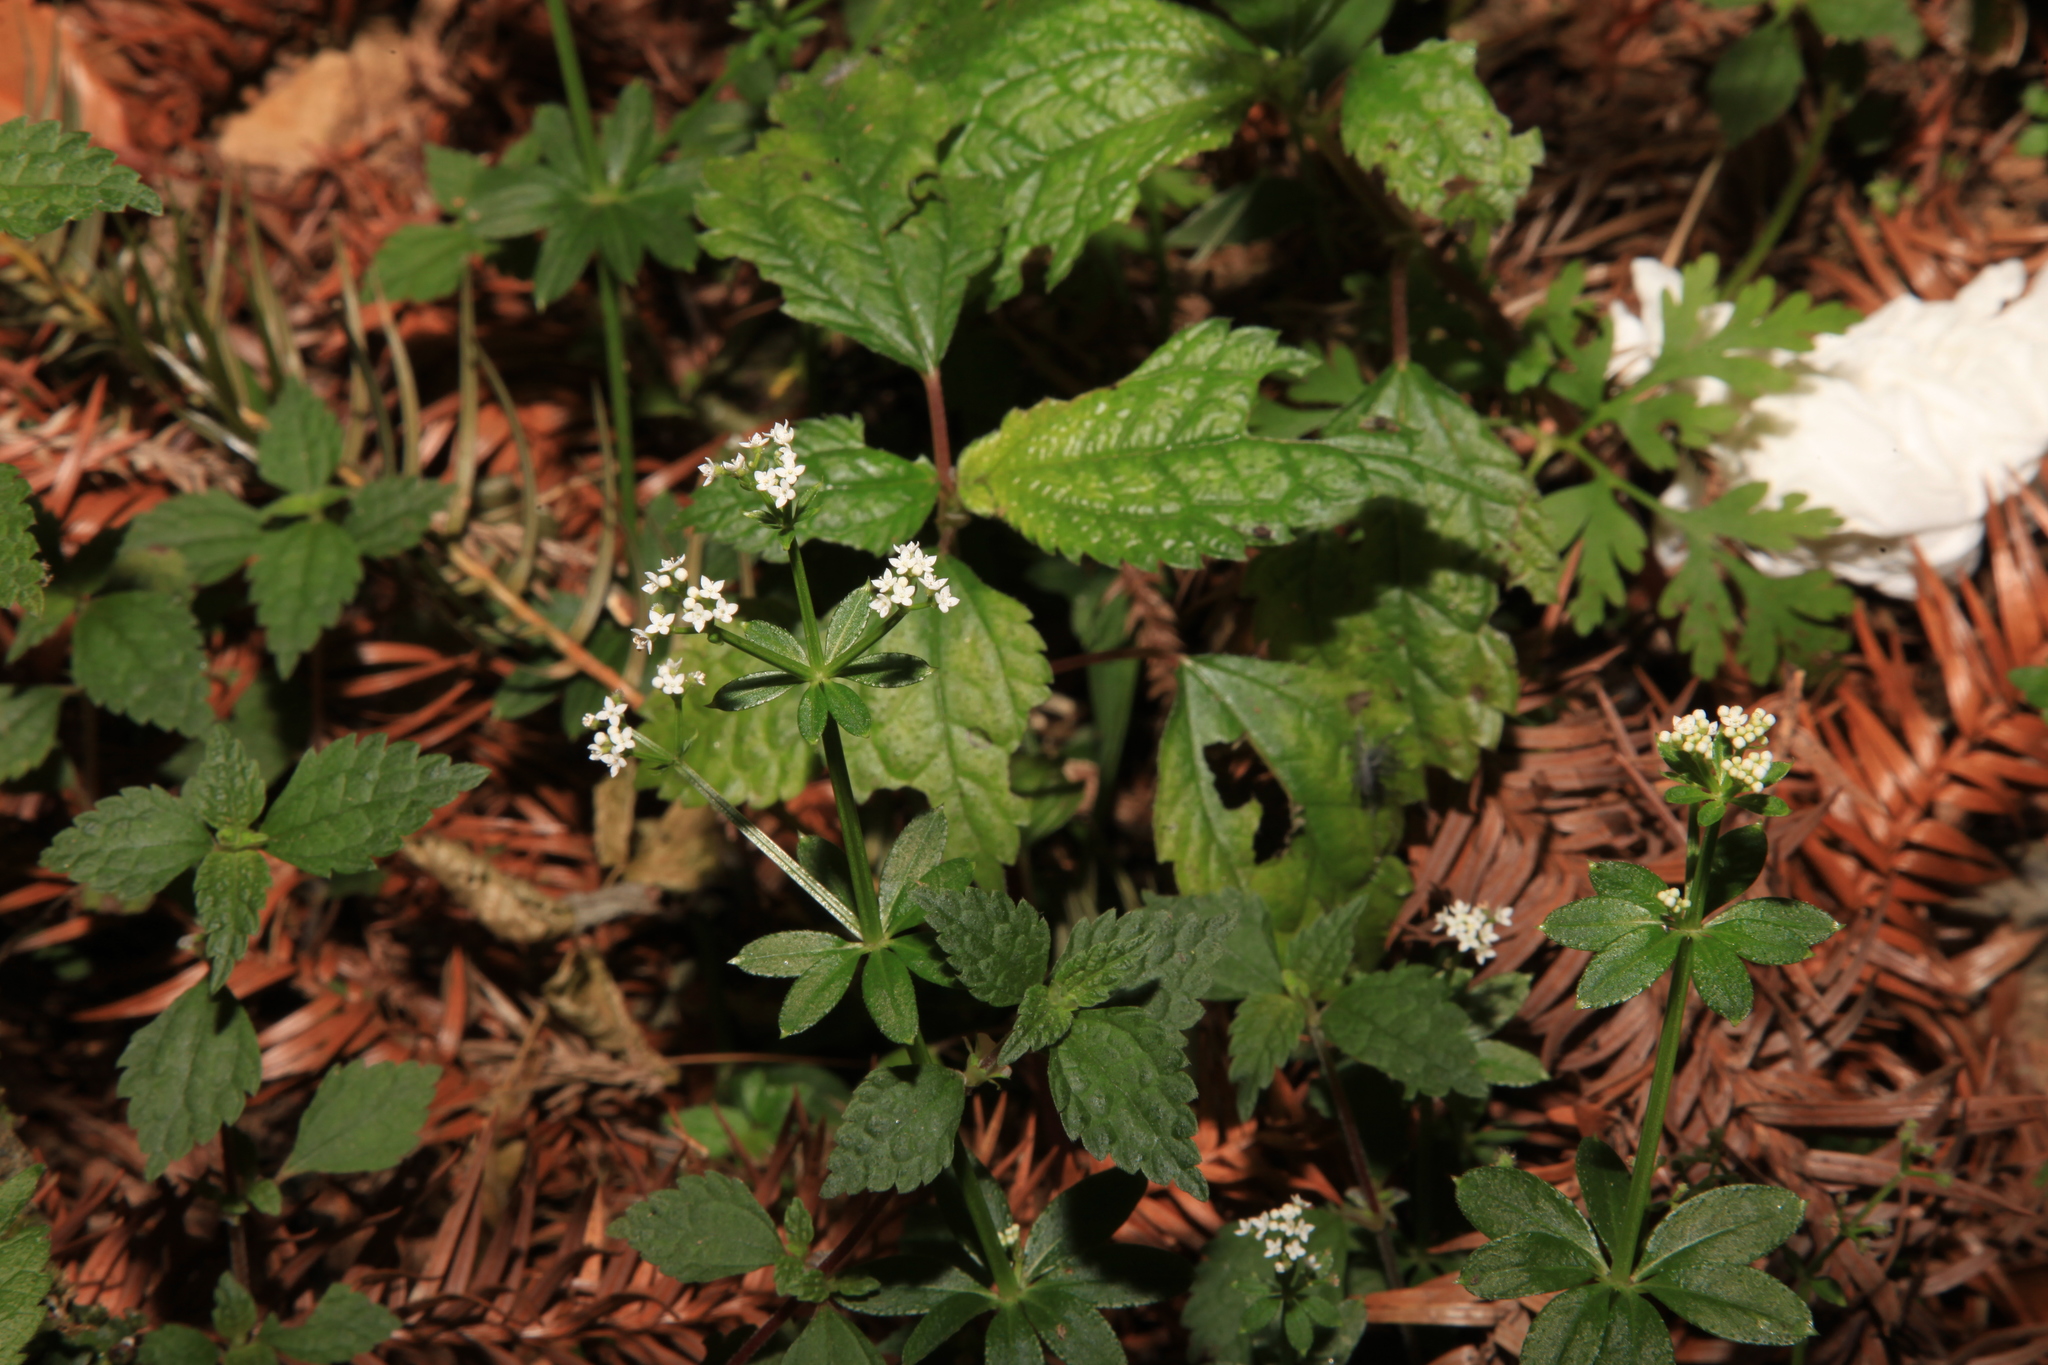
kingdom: Plantae
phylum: Tracheophyta
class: Magnoliopsida
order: Gentianales
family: Rubiaceae
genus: Galium
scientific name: Galium echinocarpum
